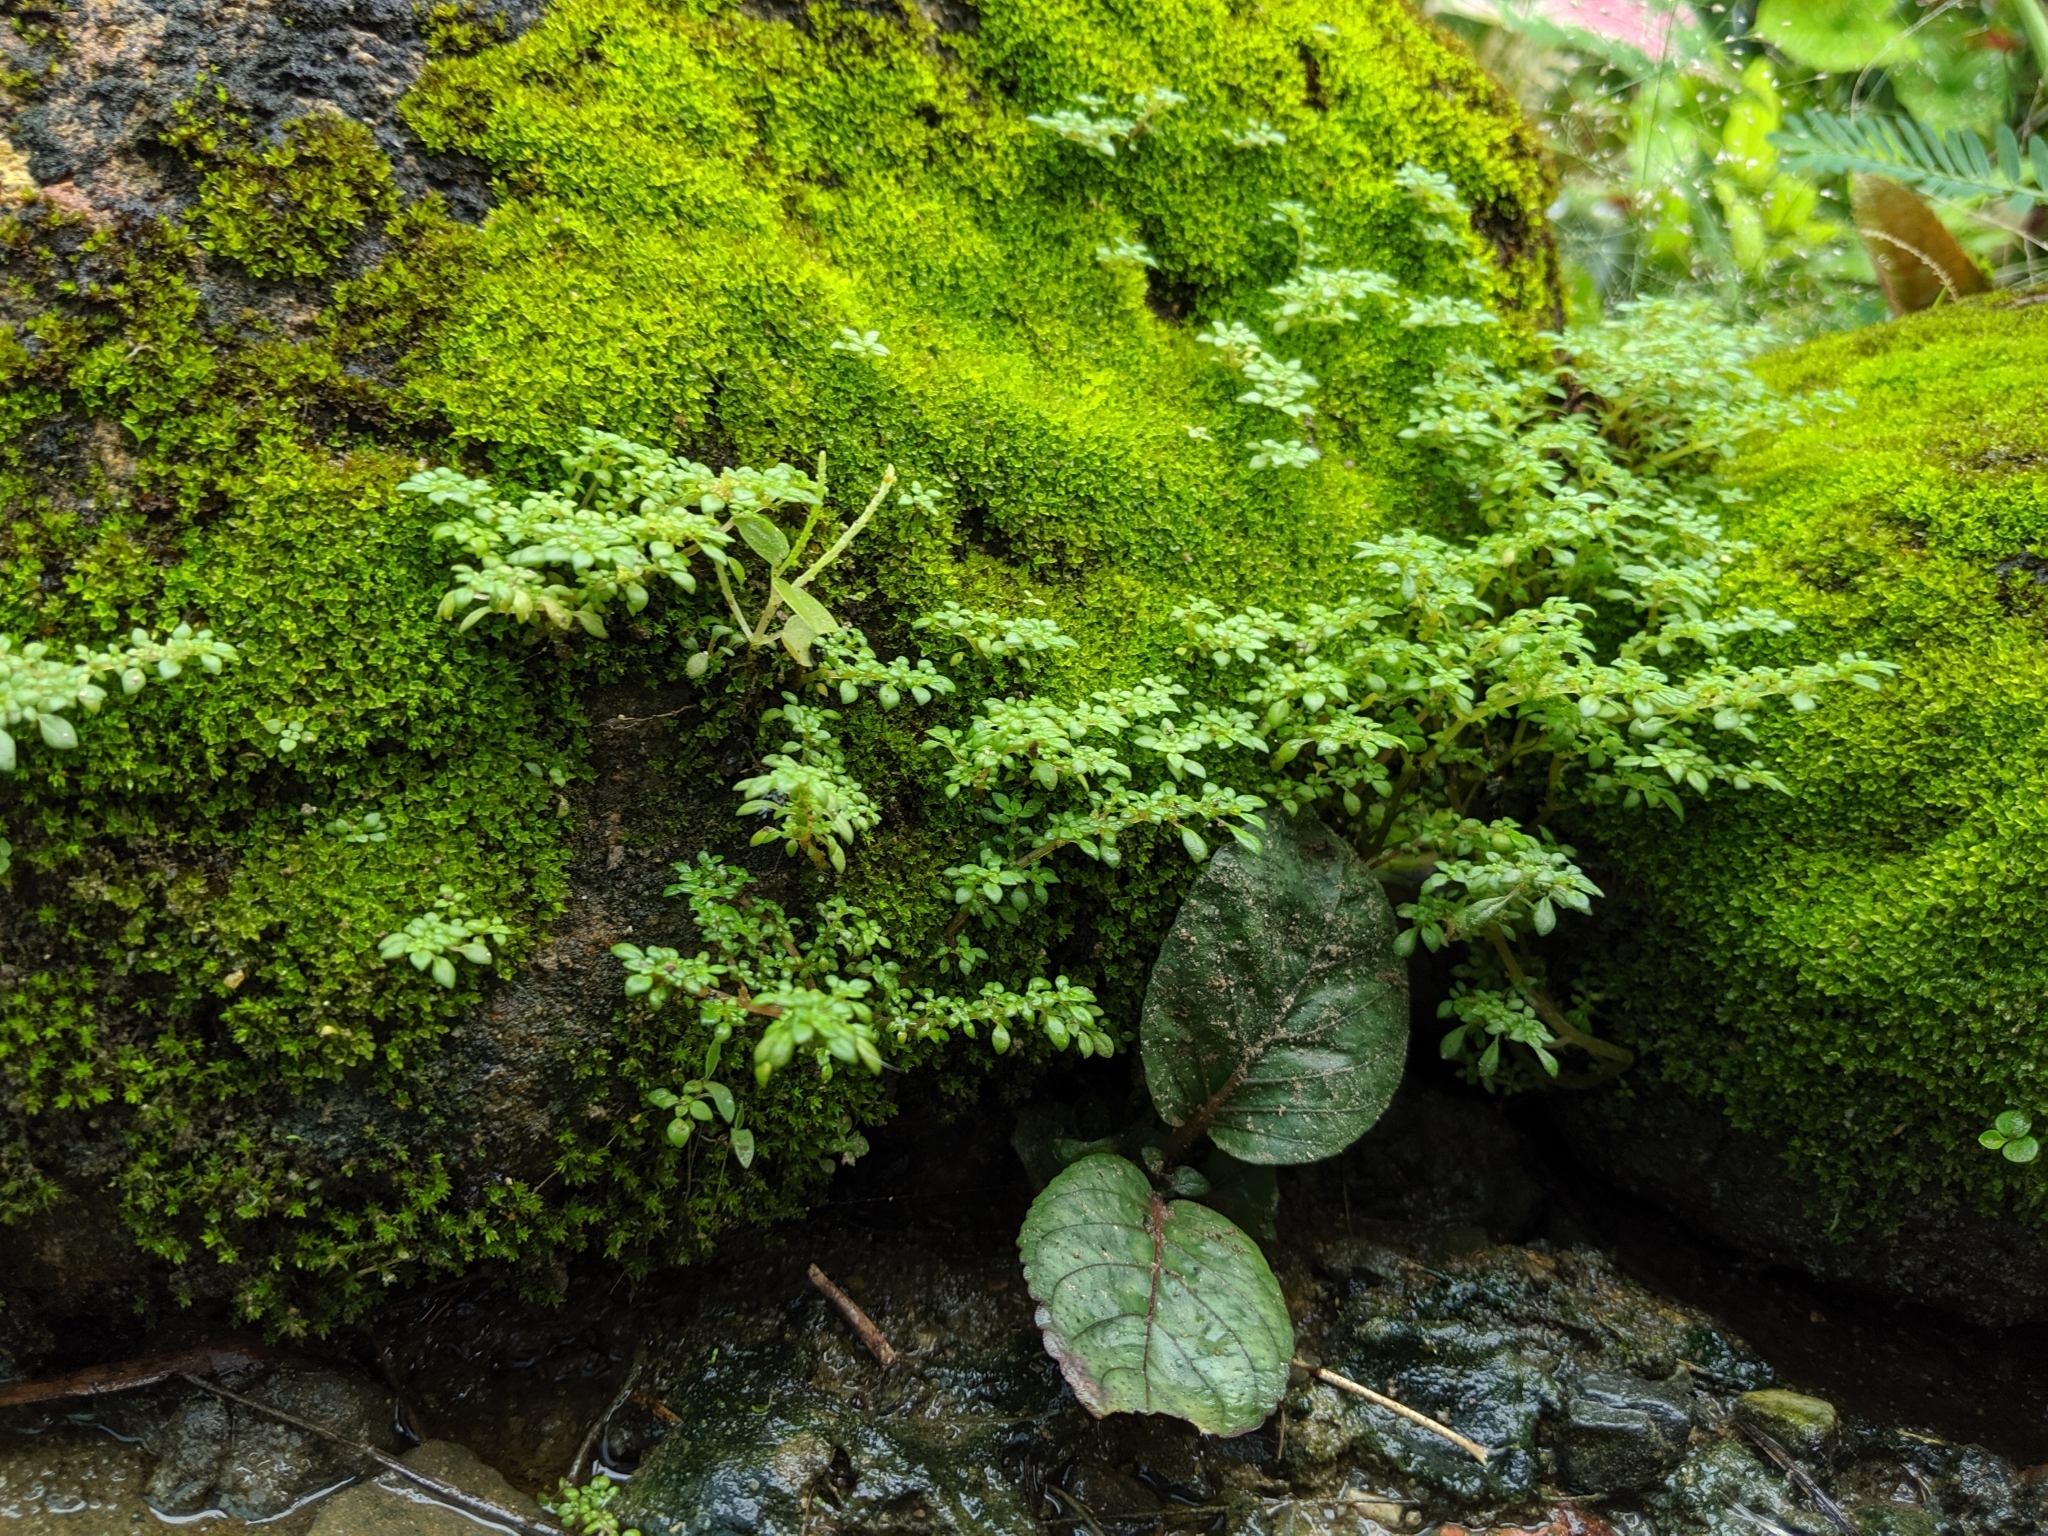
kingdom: Plantae
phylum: Tracheophyta
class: Magnoliopsida
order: Rosales
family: Urticaceae
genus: Pilea
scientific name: Pilea microphylla
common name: Artillery-plant
